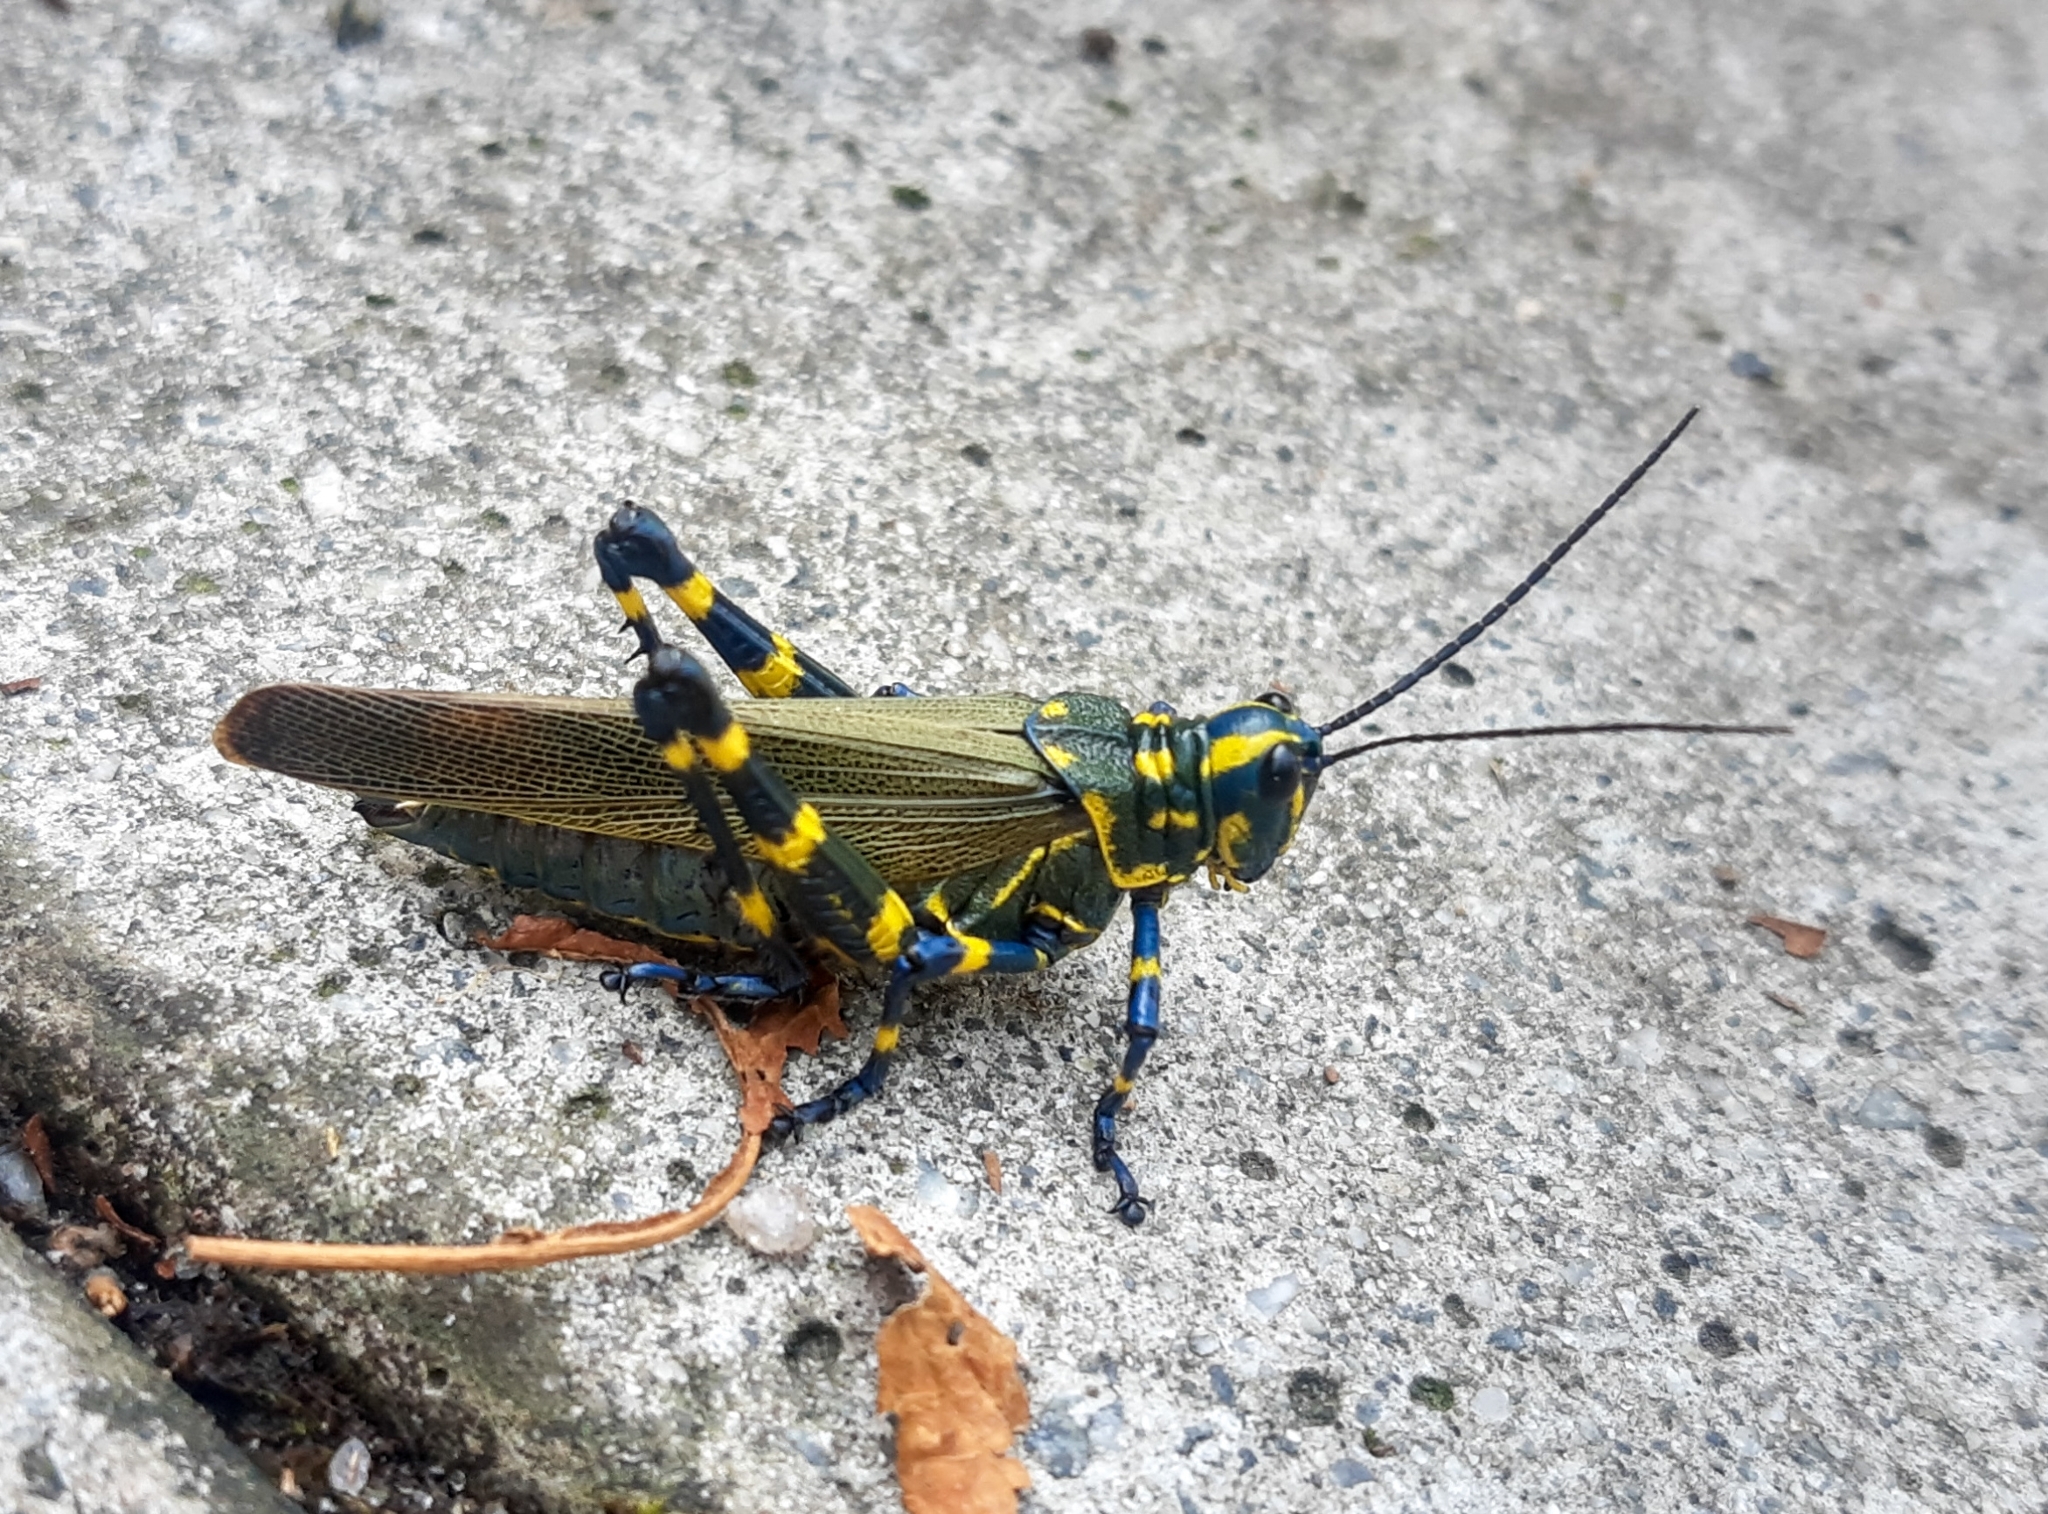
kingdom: Animalia
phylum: Arthropoda
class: Insecta
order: Orthoptera
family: Romaleidae
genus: Chromacris
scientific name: Chromacris speciosa
